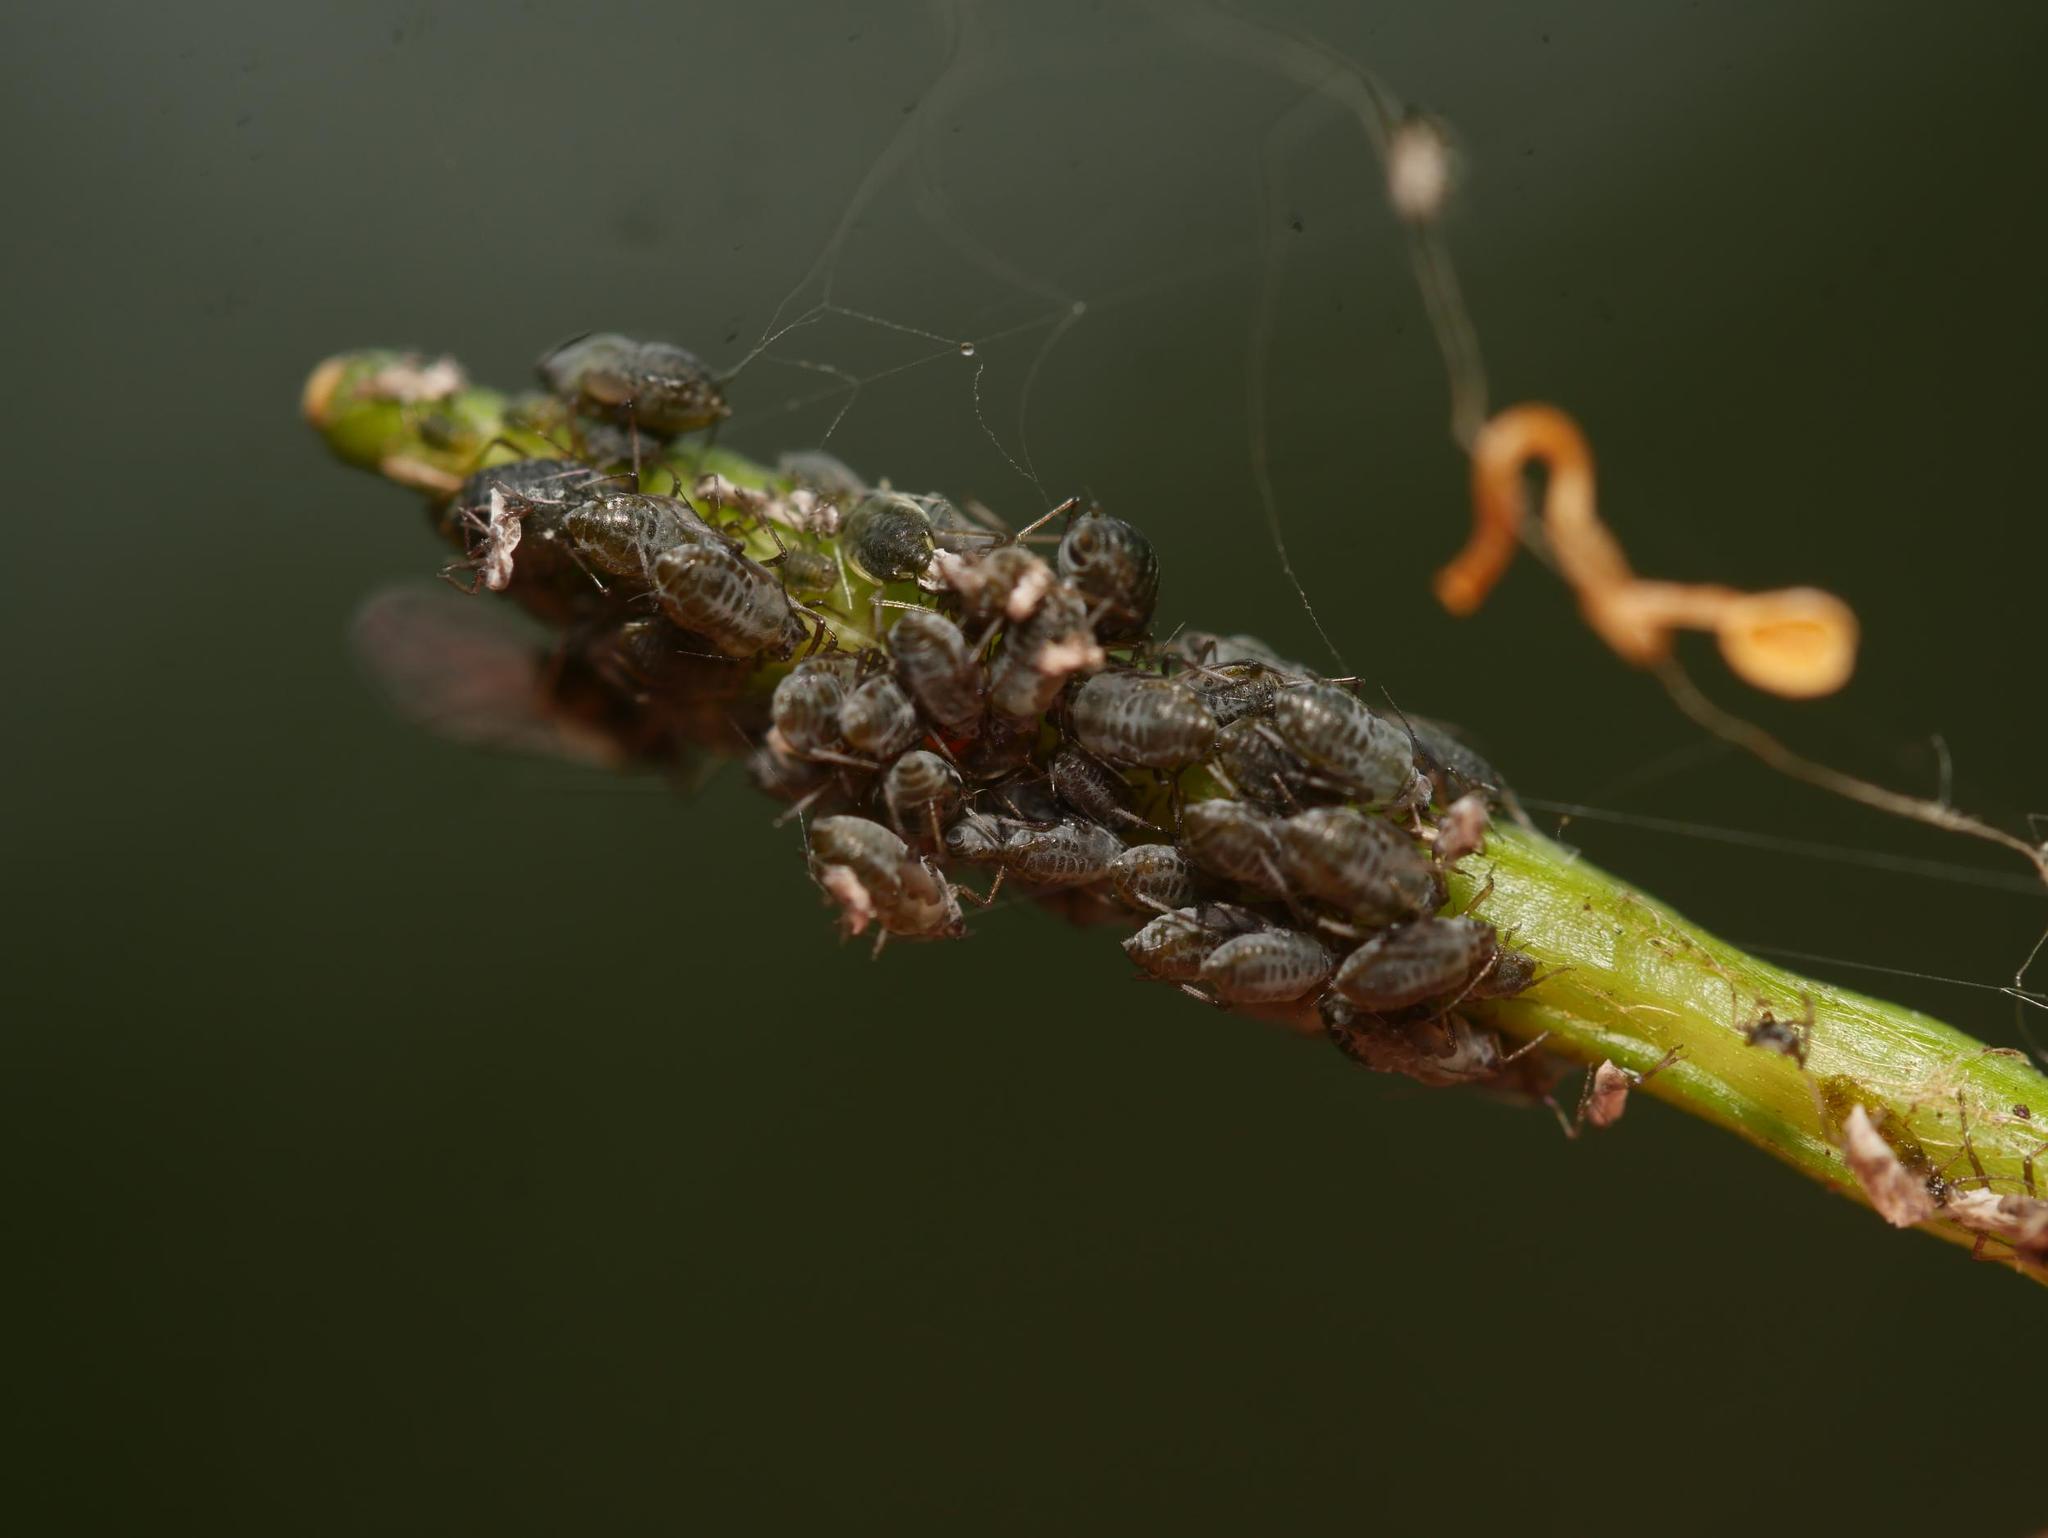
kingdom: Animalia
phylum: Arthropoda
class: Insecta
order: Hemiptera
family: Aphididae
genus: Lipaphis
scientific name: Lipaphis alliariae
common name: Granade aphid
